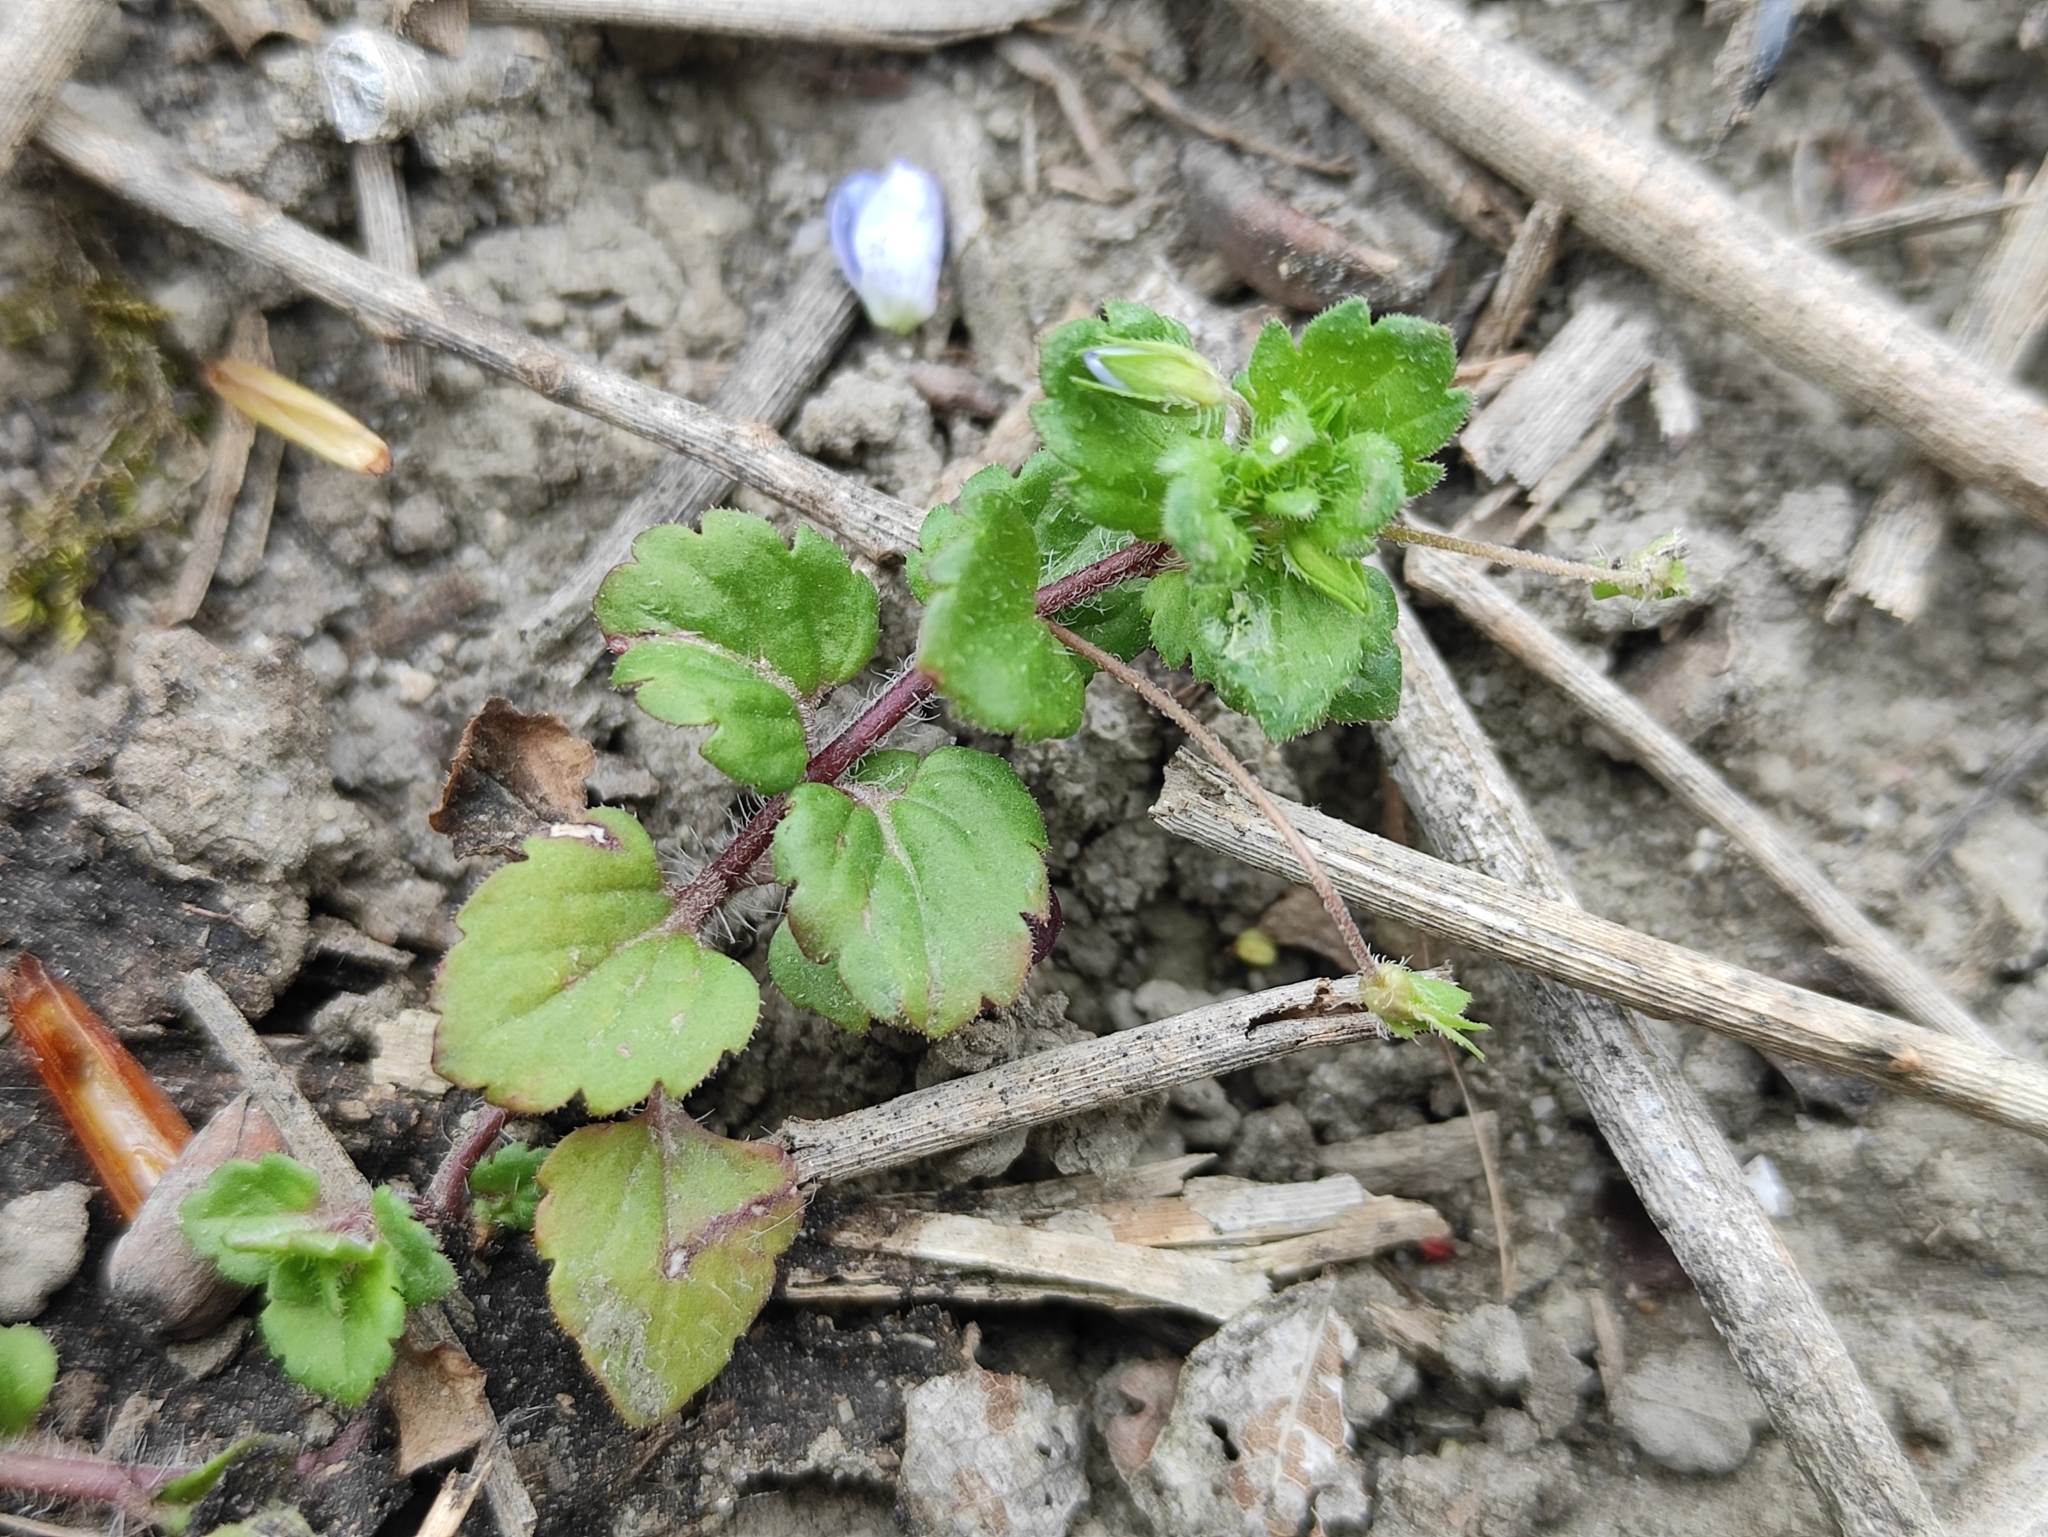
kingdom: Plantae
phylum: Tracheophyta
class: Magnoliopsida
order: Lamiales
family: Plantaginaceae
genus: Veronica
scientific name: Veronica persica
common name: Common field-speedwell
